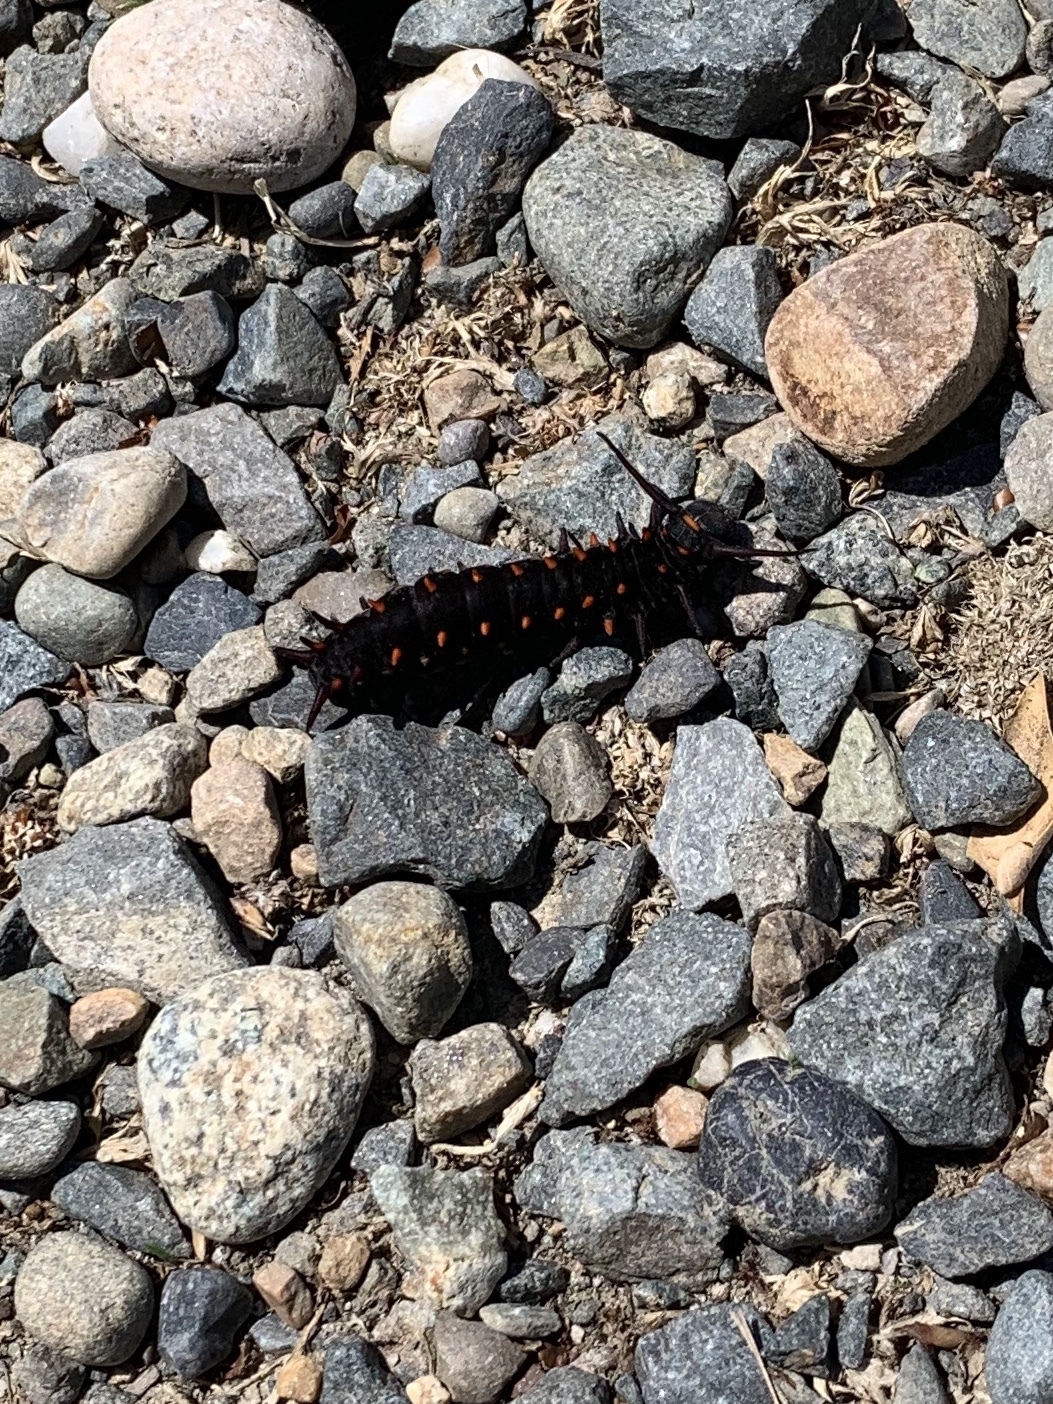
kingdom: Animalia
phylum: Arthropoda
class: Insecta
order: Lepidoptera
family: Papilionidae
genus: Battus
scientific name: Battus philenor
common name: Pipevine swallowtail
